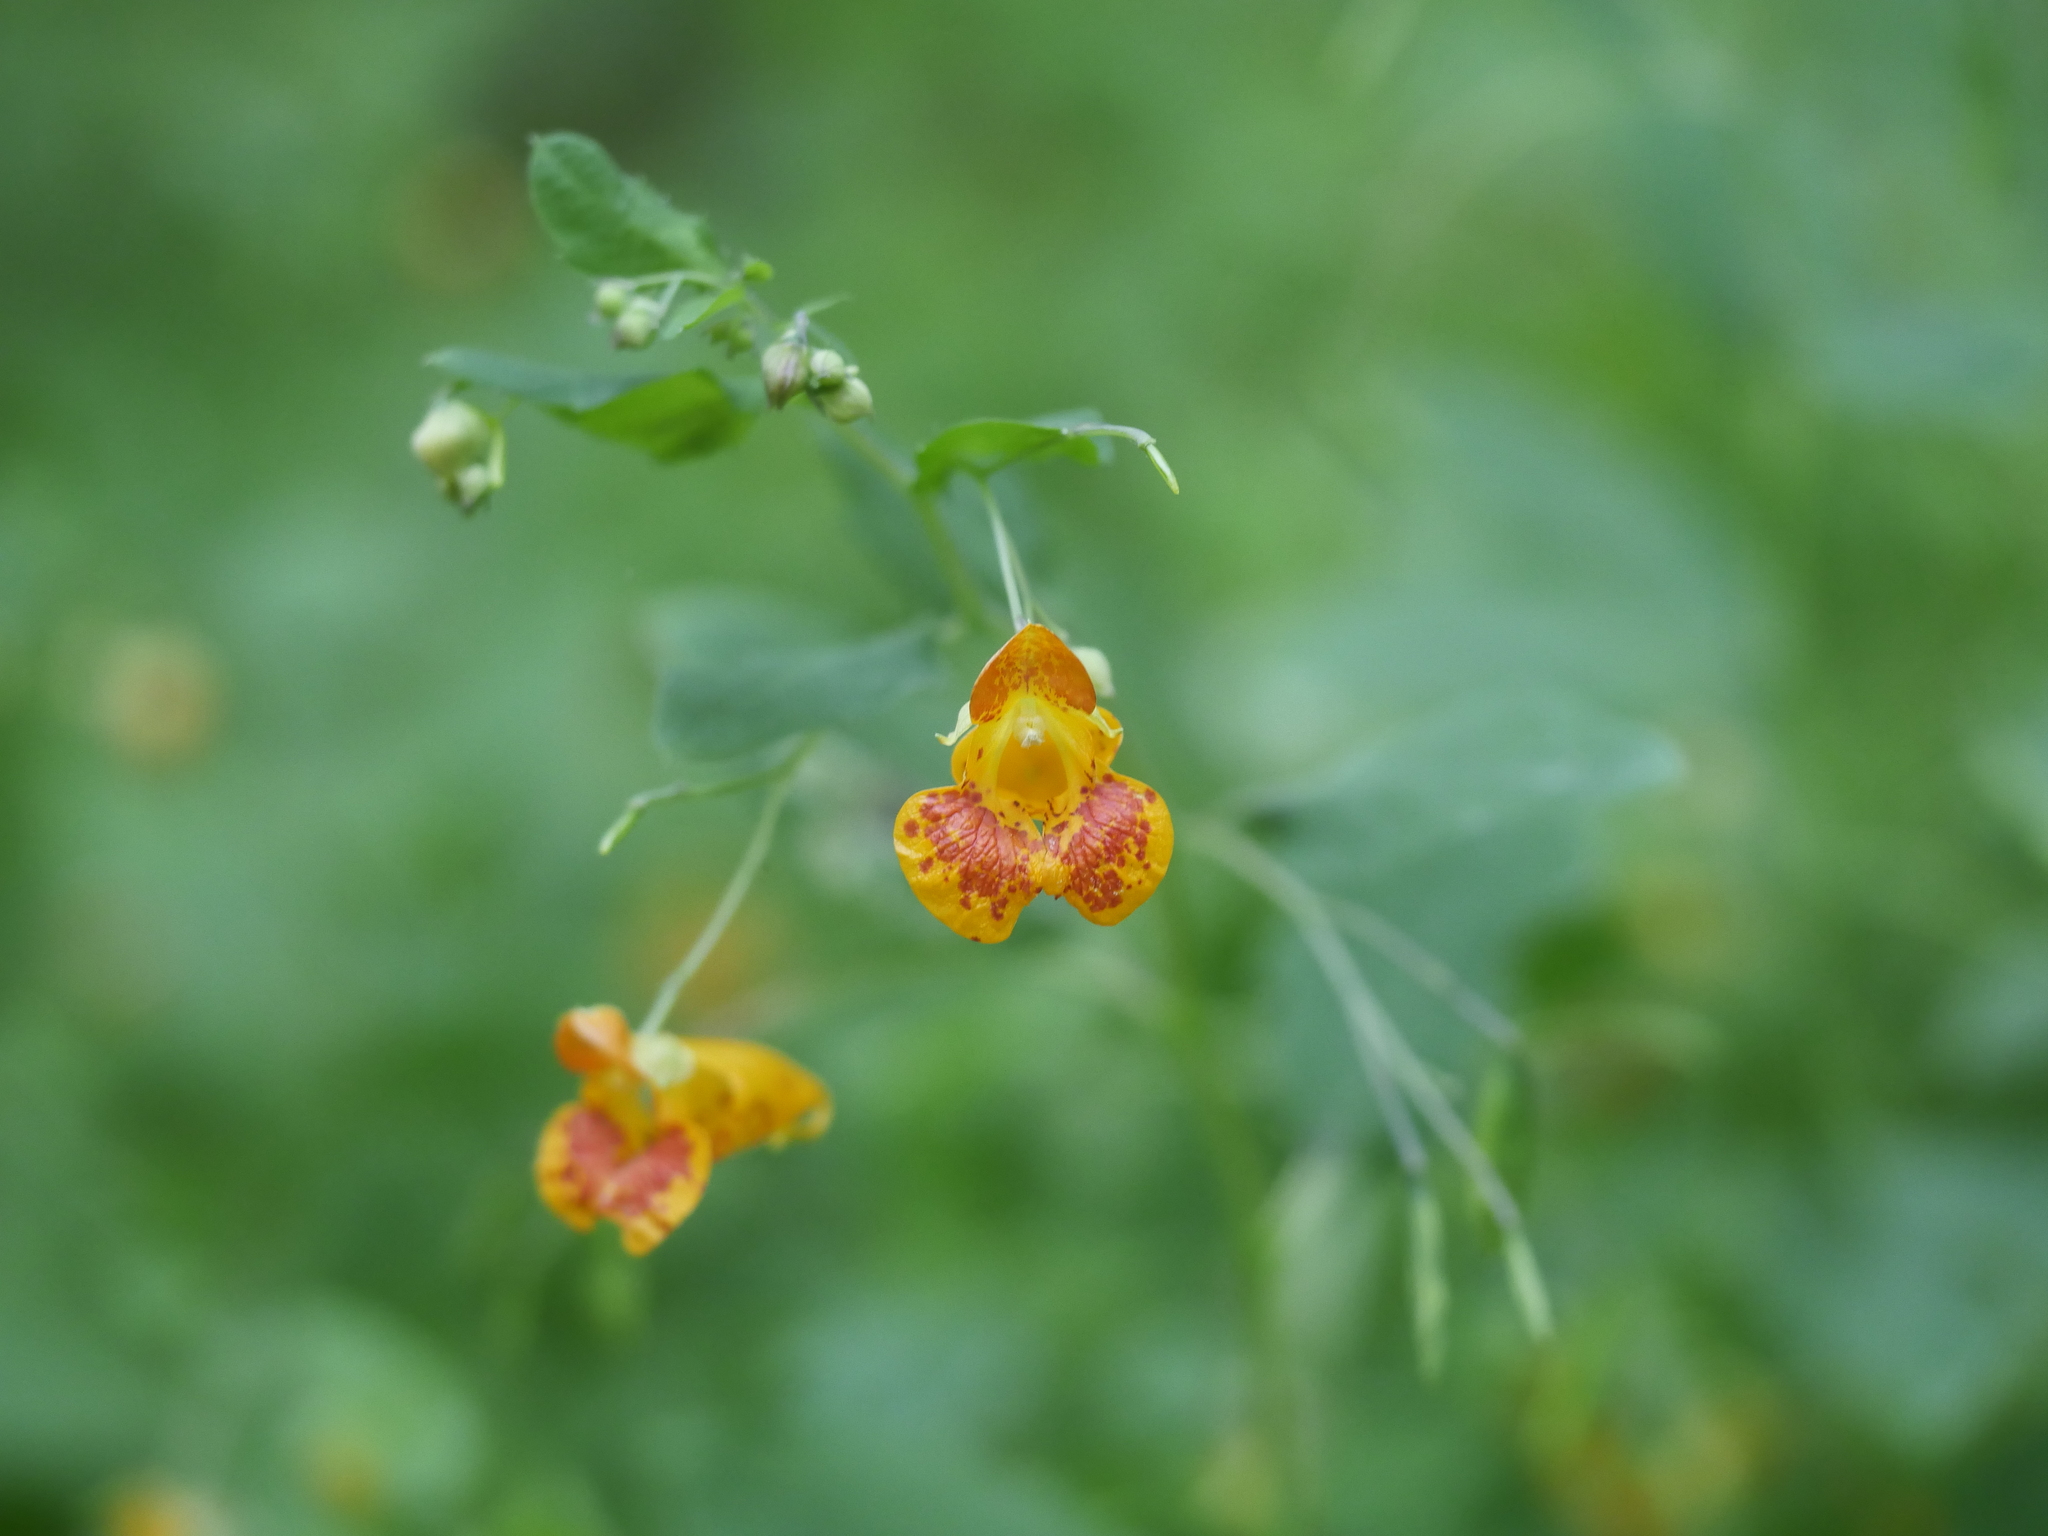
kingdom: Plantae
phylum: Tracheophyta
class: Magnoliopsida
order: Ericales
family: Balsaminaceae
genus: Impatiens
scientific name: Impatiens capensis
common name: Orange balsam
